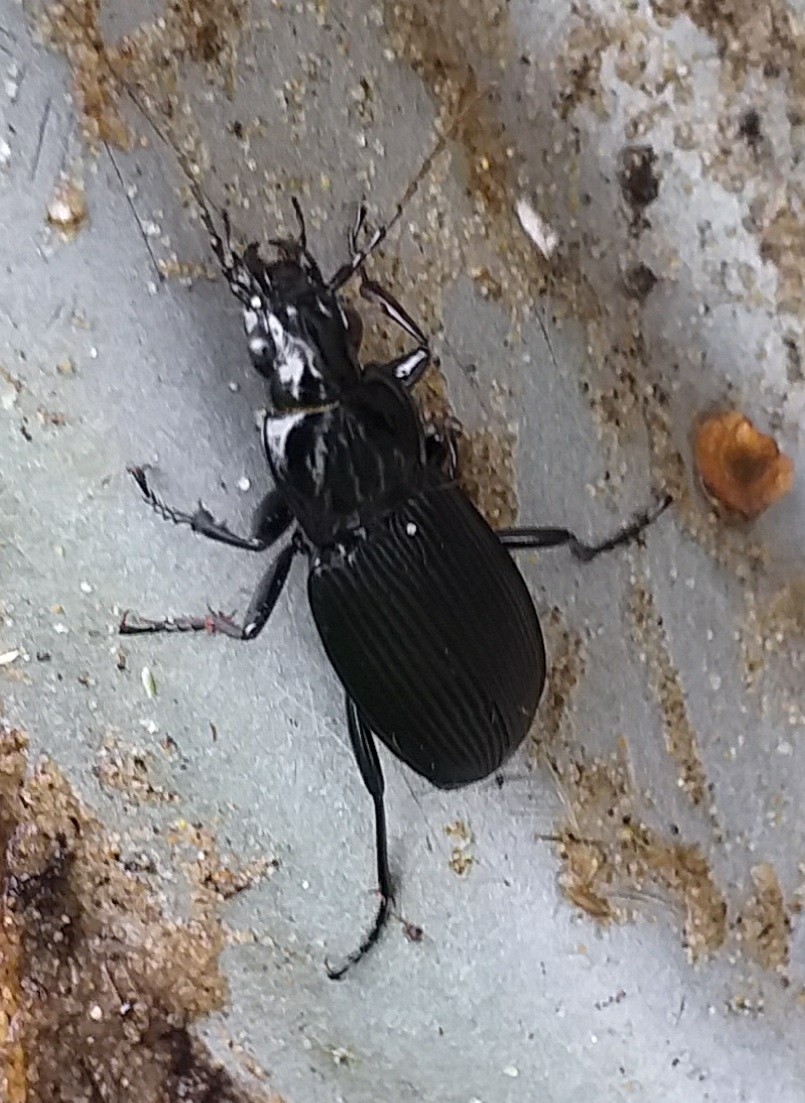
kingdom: Animalia
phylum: Arthropoda
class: Insecta
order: Coleoptera
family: Carabidae
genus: Pterostichus
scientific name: Pterostichus niger
